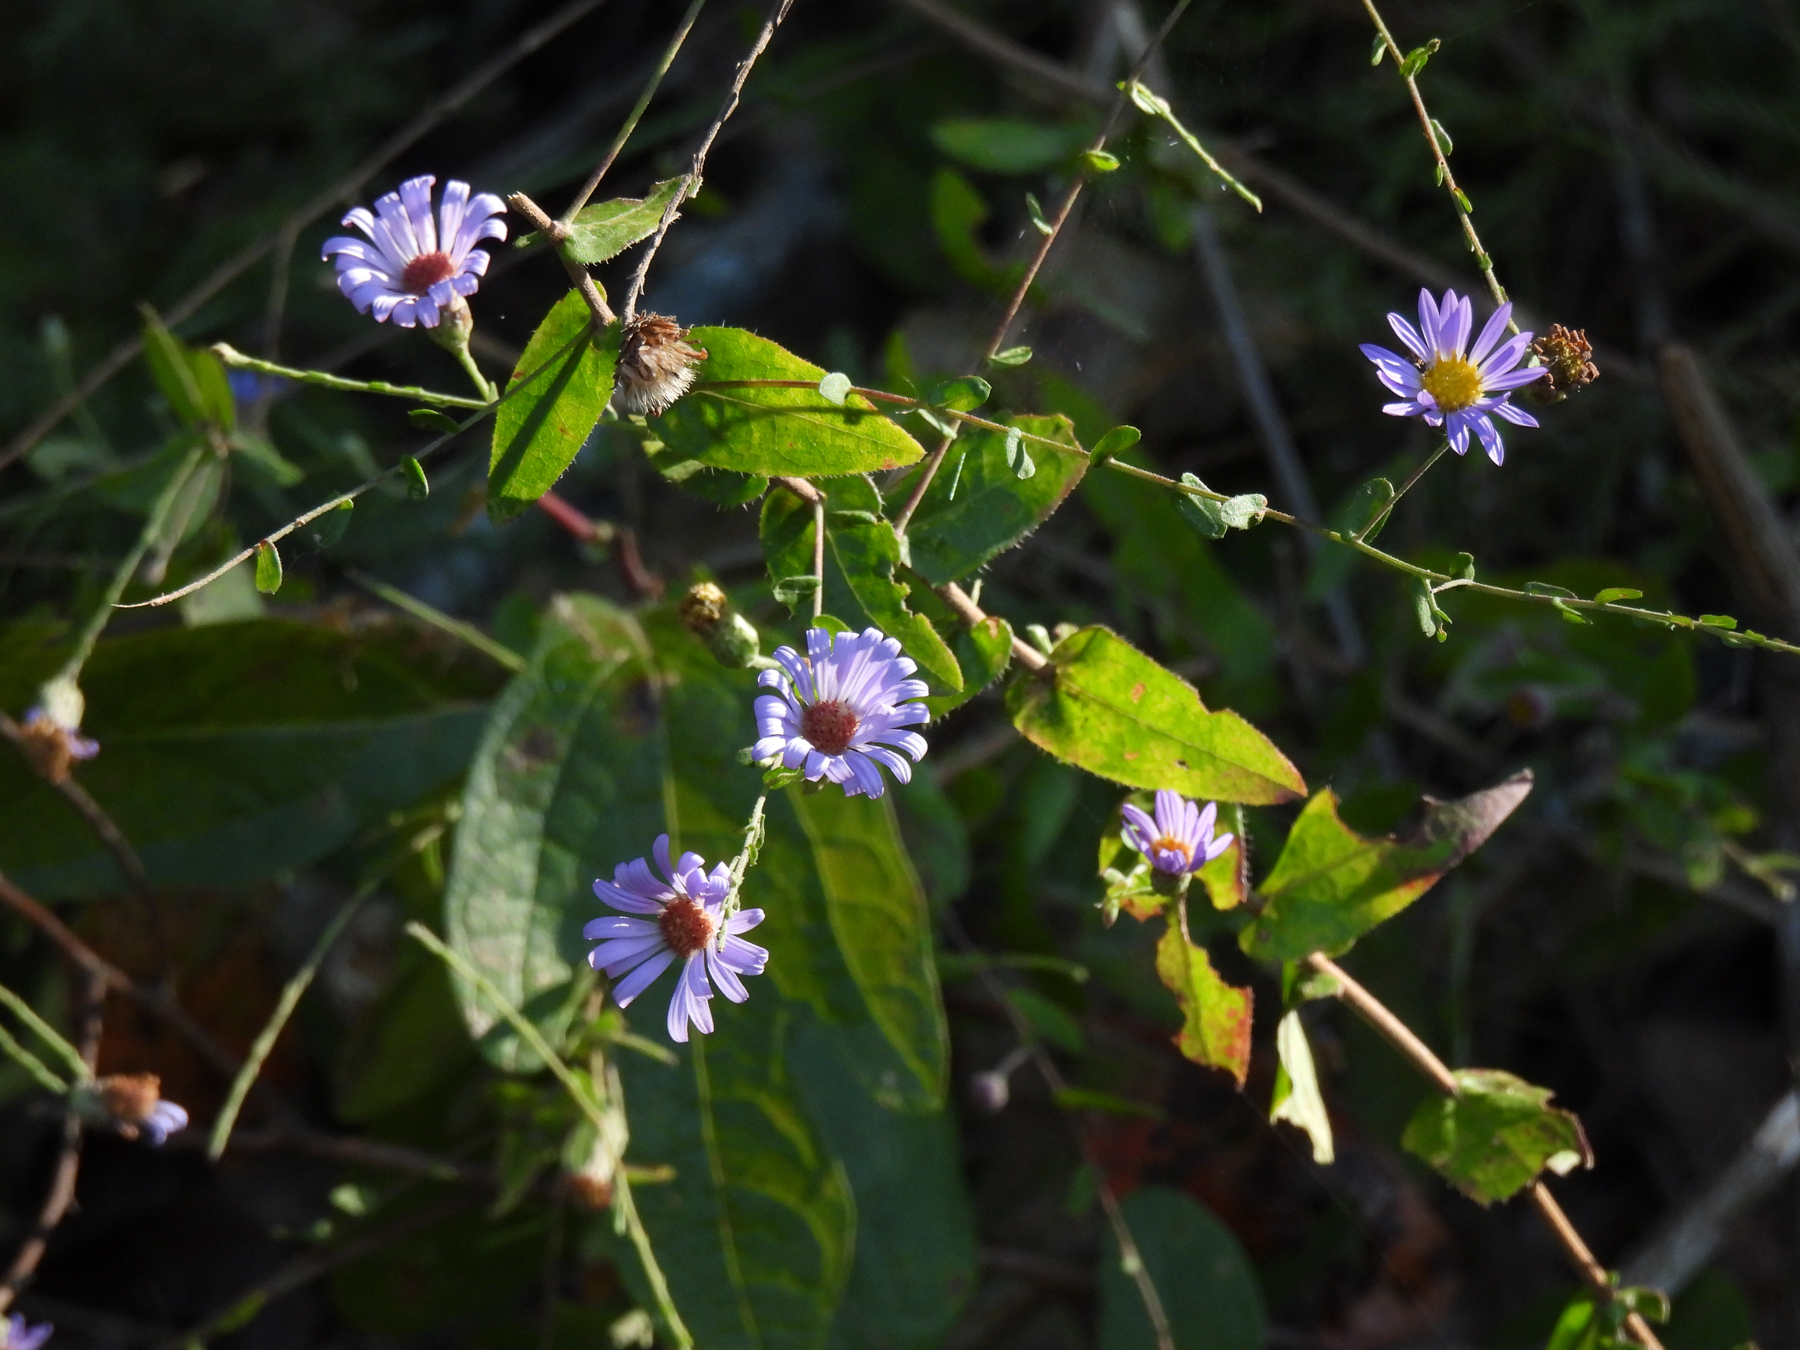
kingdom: Plantae
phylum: Tracheophyta
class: Magnoliopsida
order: Asterales
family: Asteraceae
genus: Symphyotrichum
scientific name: Symphyotrichum patens
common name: Late purple aster
